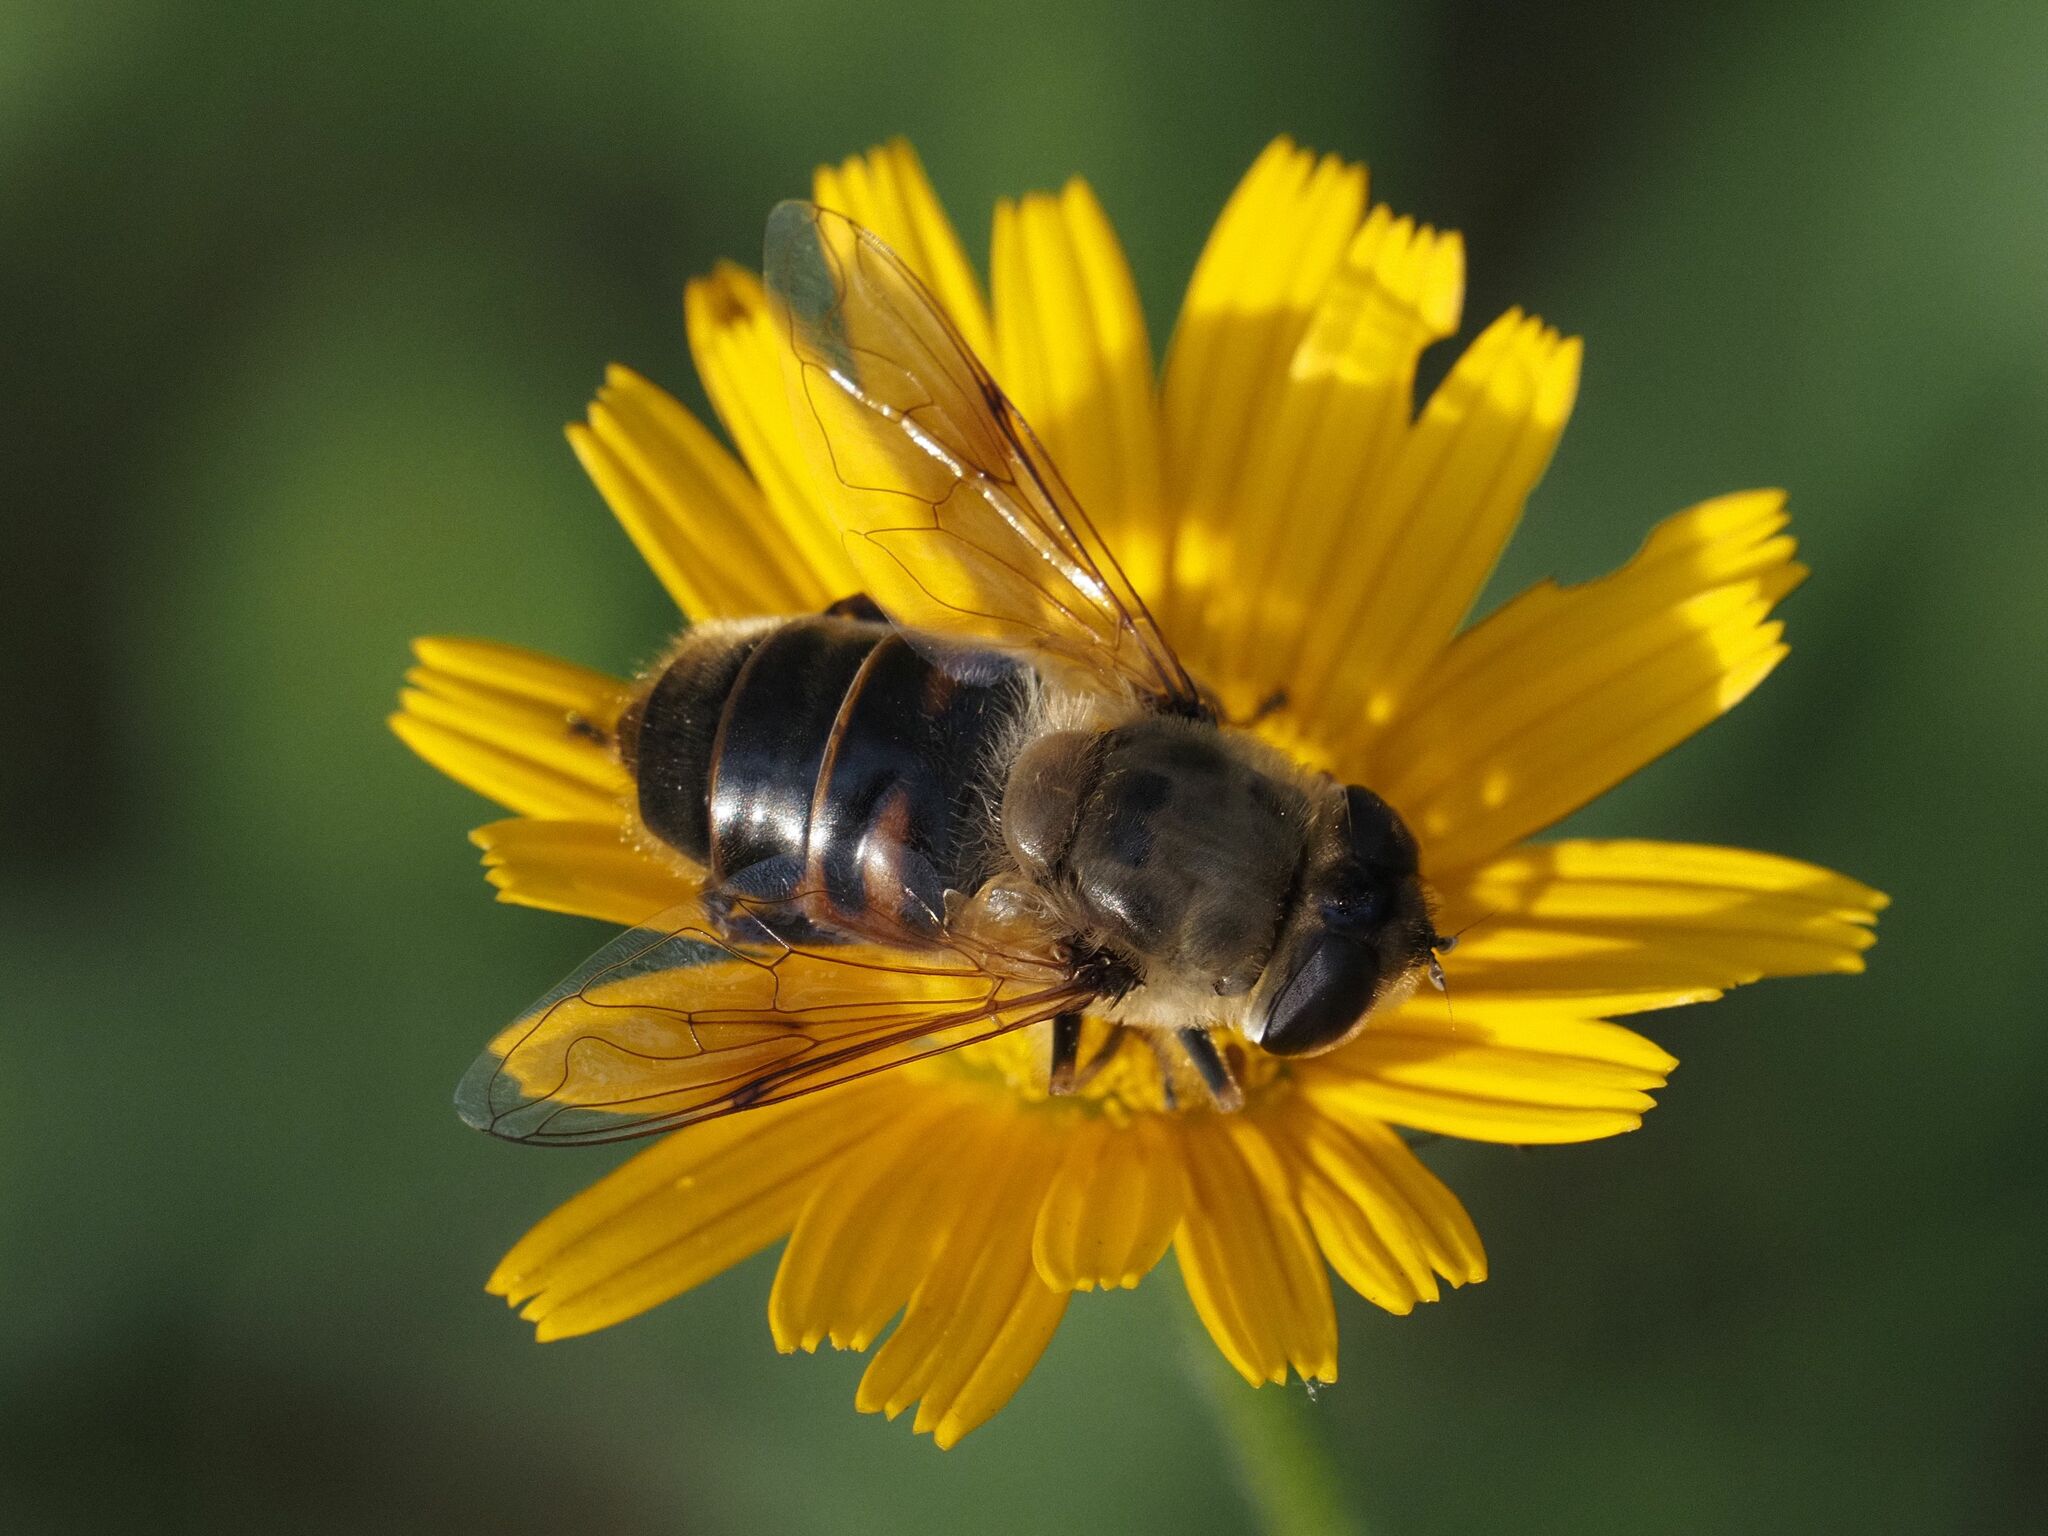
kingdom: Animalia
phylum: Arthropoda
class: Insecta
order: Diptera
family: Syrphidae
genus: Eristalis
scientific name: Eristalis tenax
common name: Drone fly
